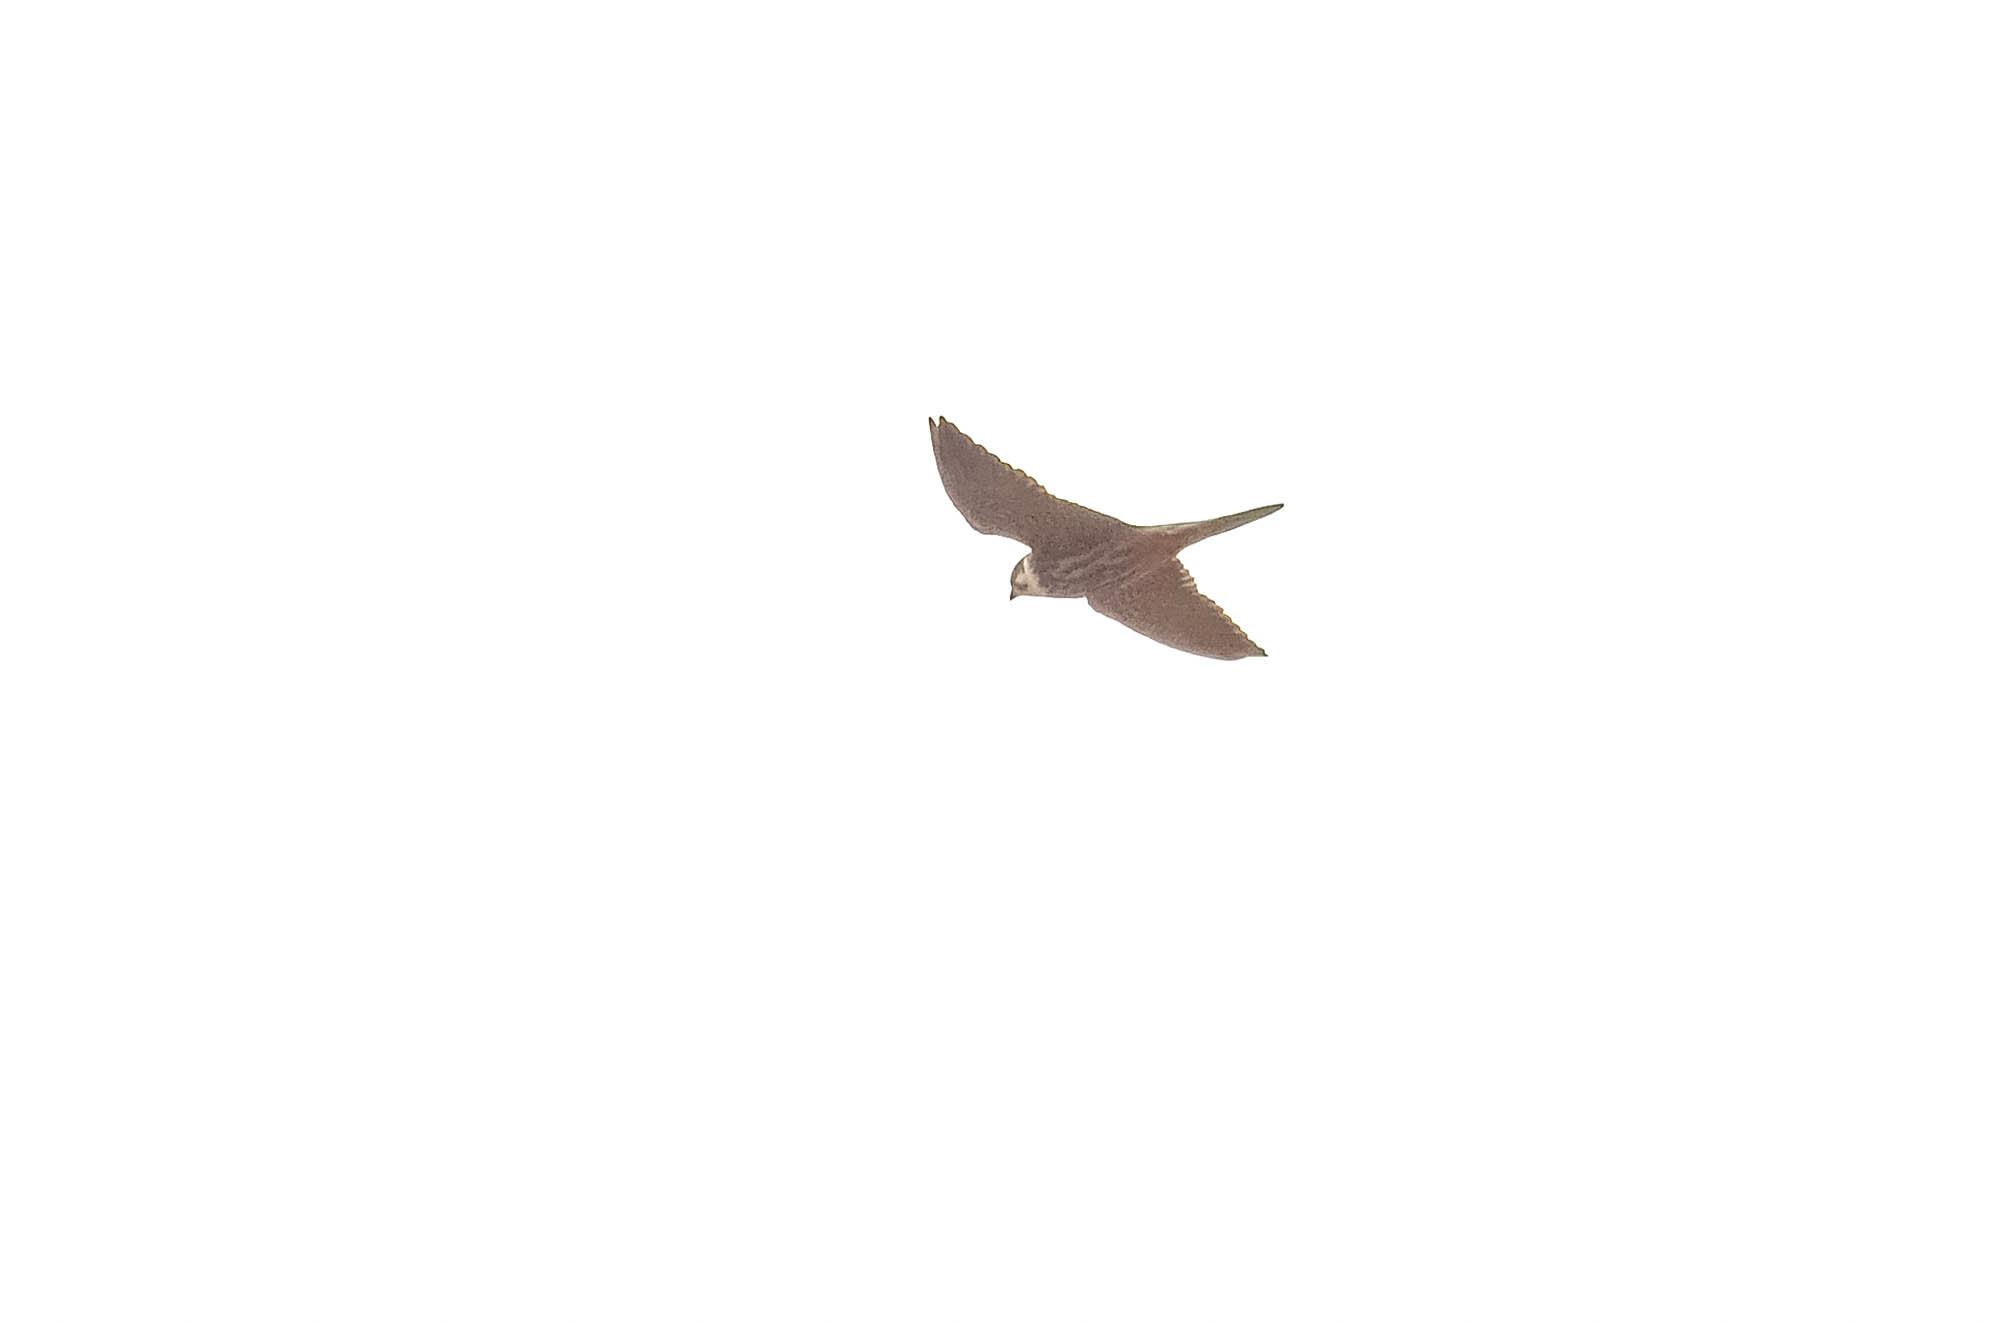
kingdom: Animalia
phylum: Chordata
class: Aves
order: Falconiformes
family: Falconidae
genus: Falco
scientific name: Falco subbuteo
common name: Eurasian hobby
